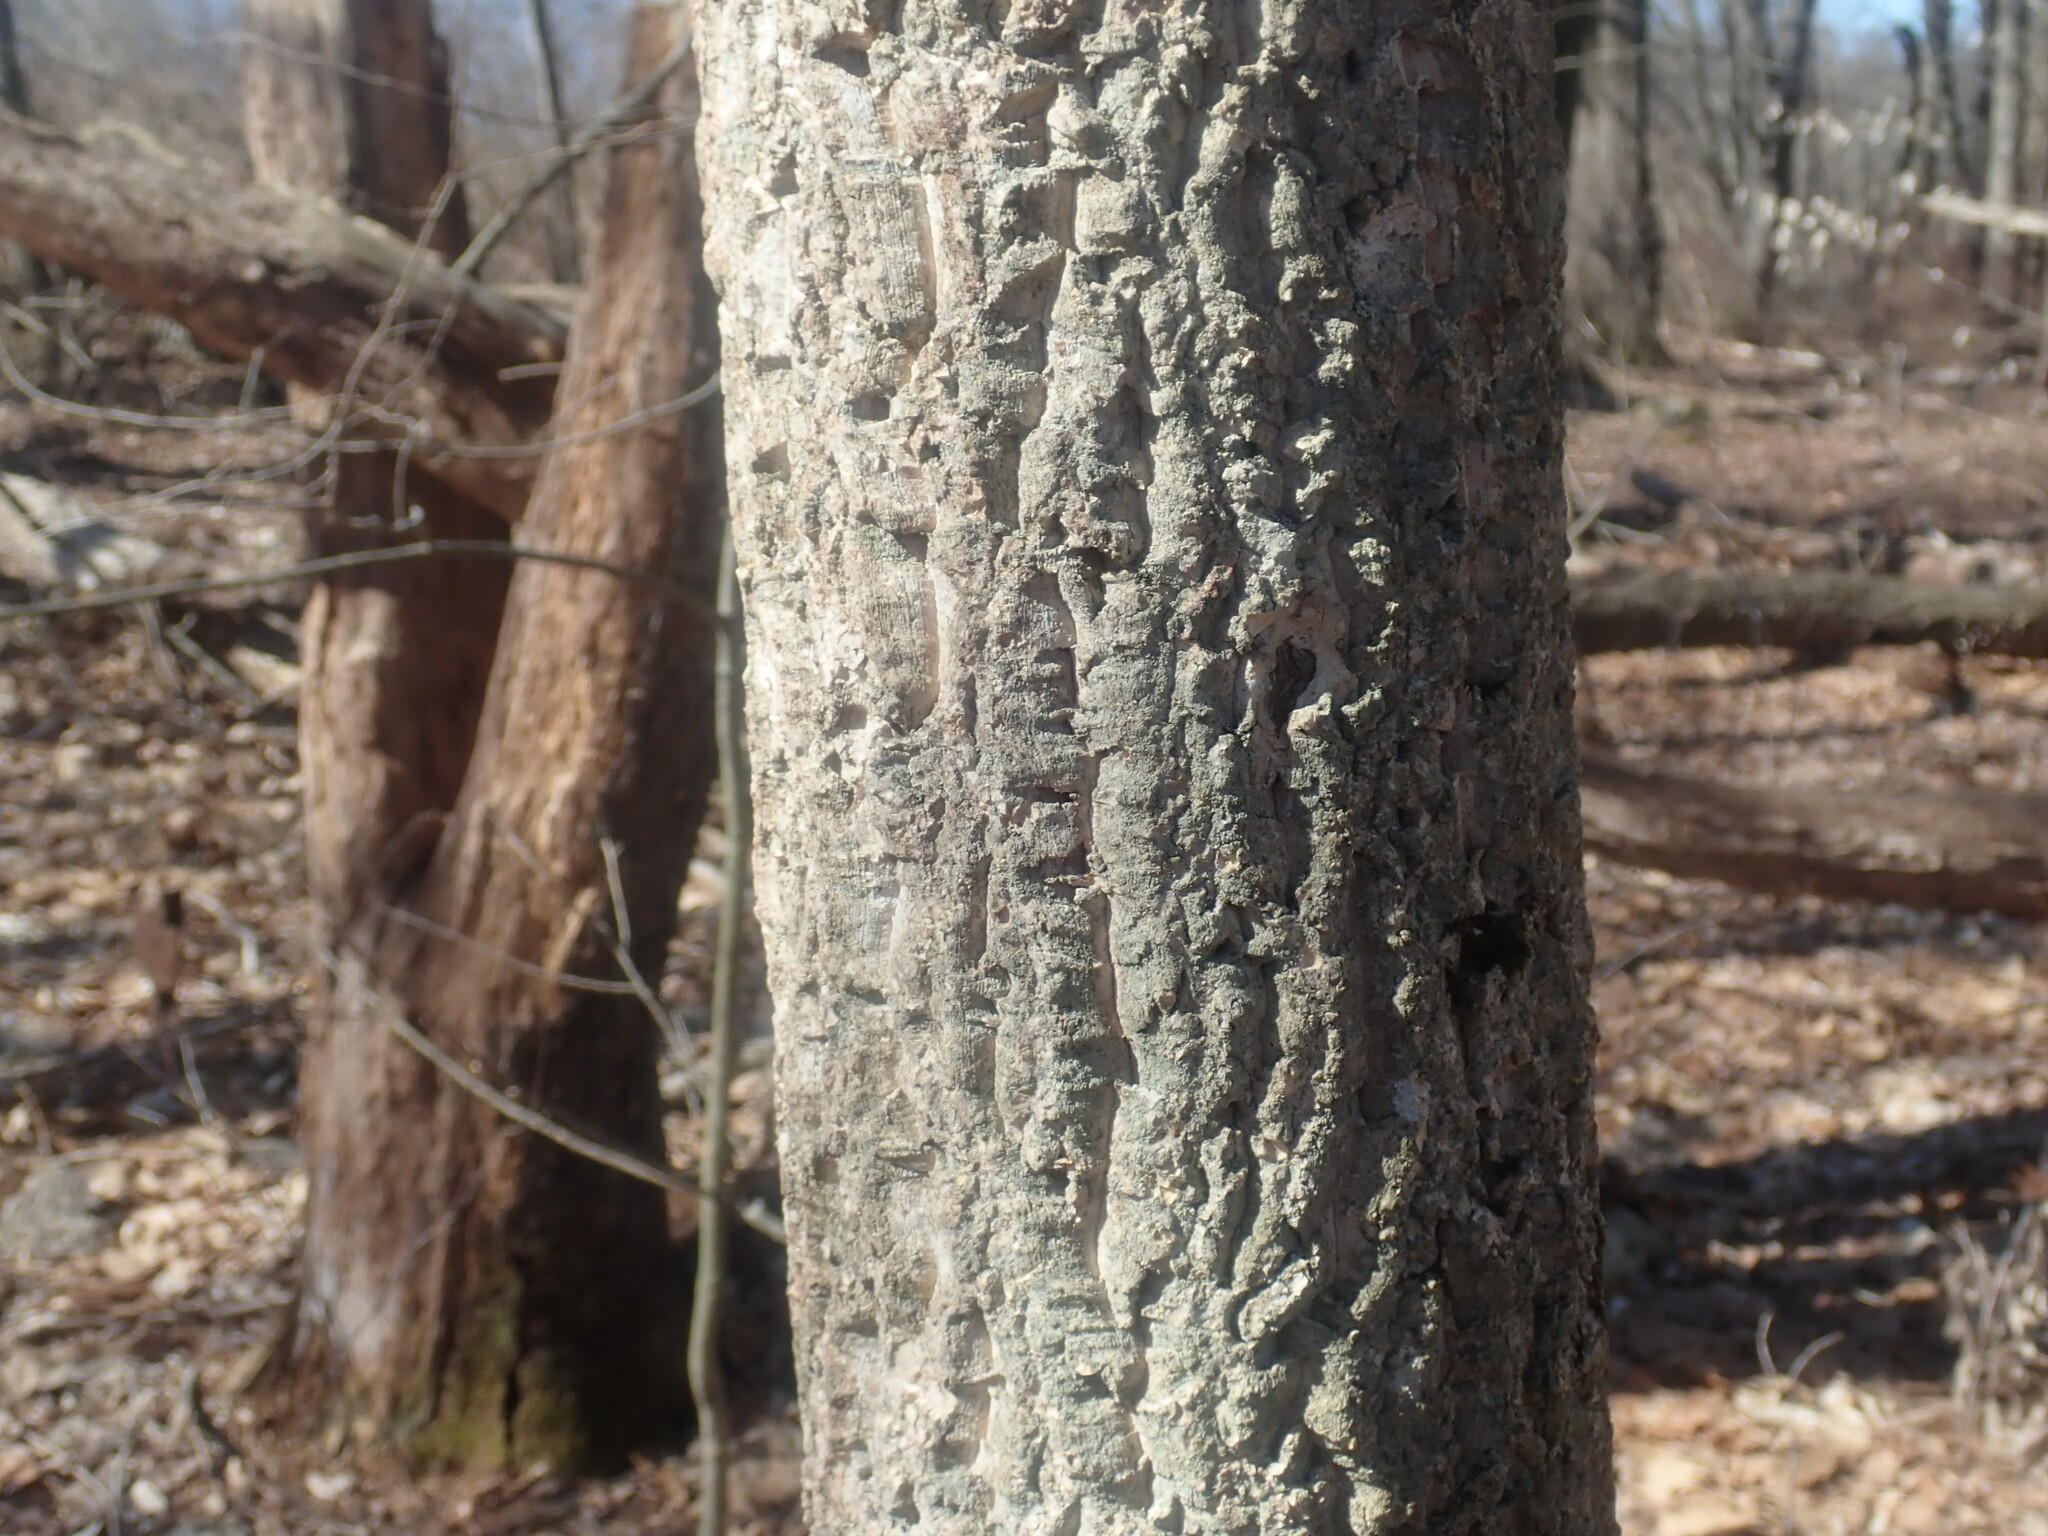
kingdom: Plantae
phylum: Tracheophyta
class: Magnoliopsida
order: Sapindales
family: Rutaceae
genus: Phellodendron
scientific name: Phellodendron amurense
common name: Amur corktree
